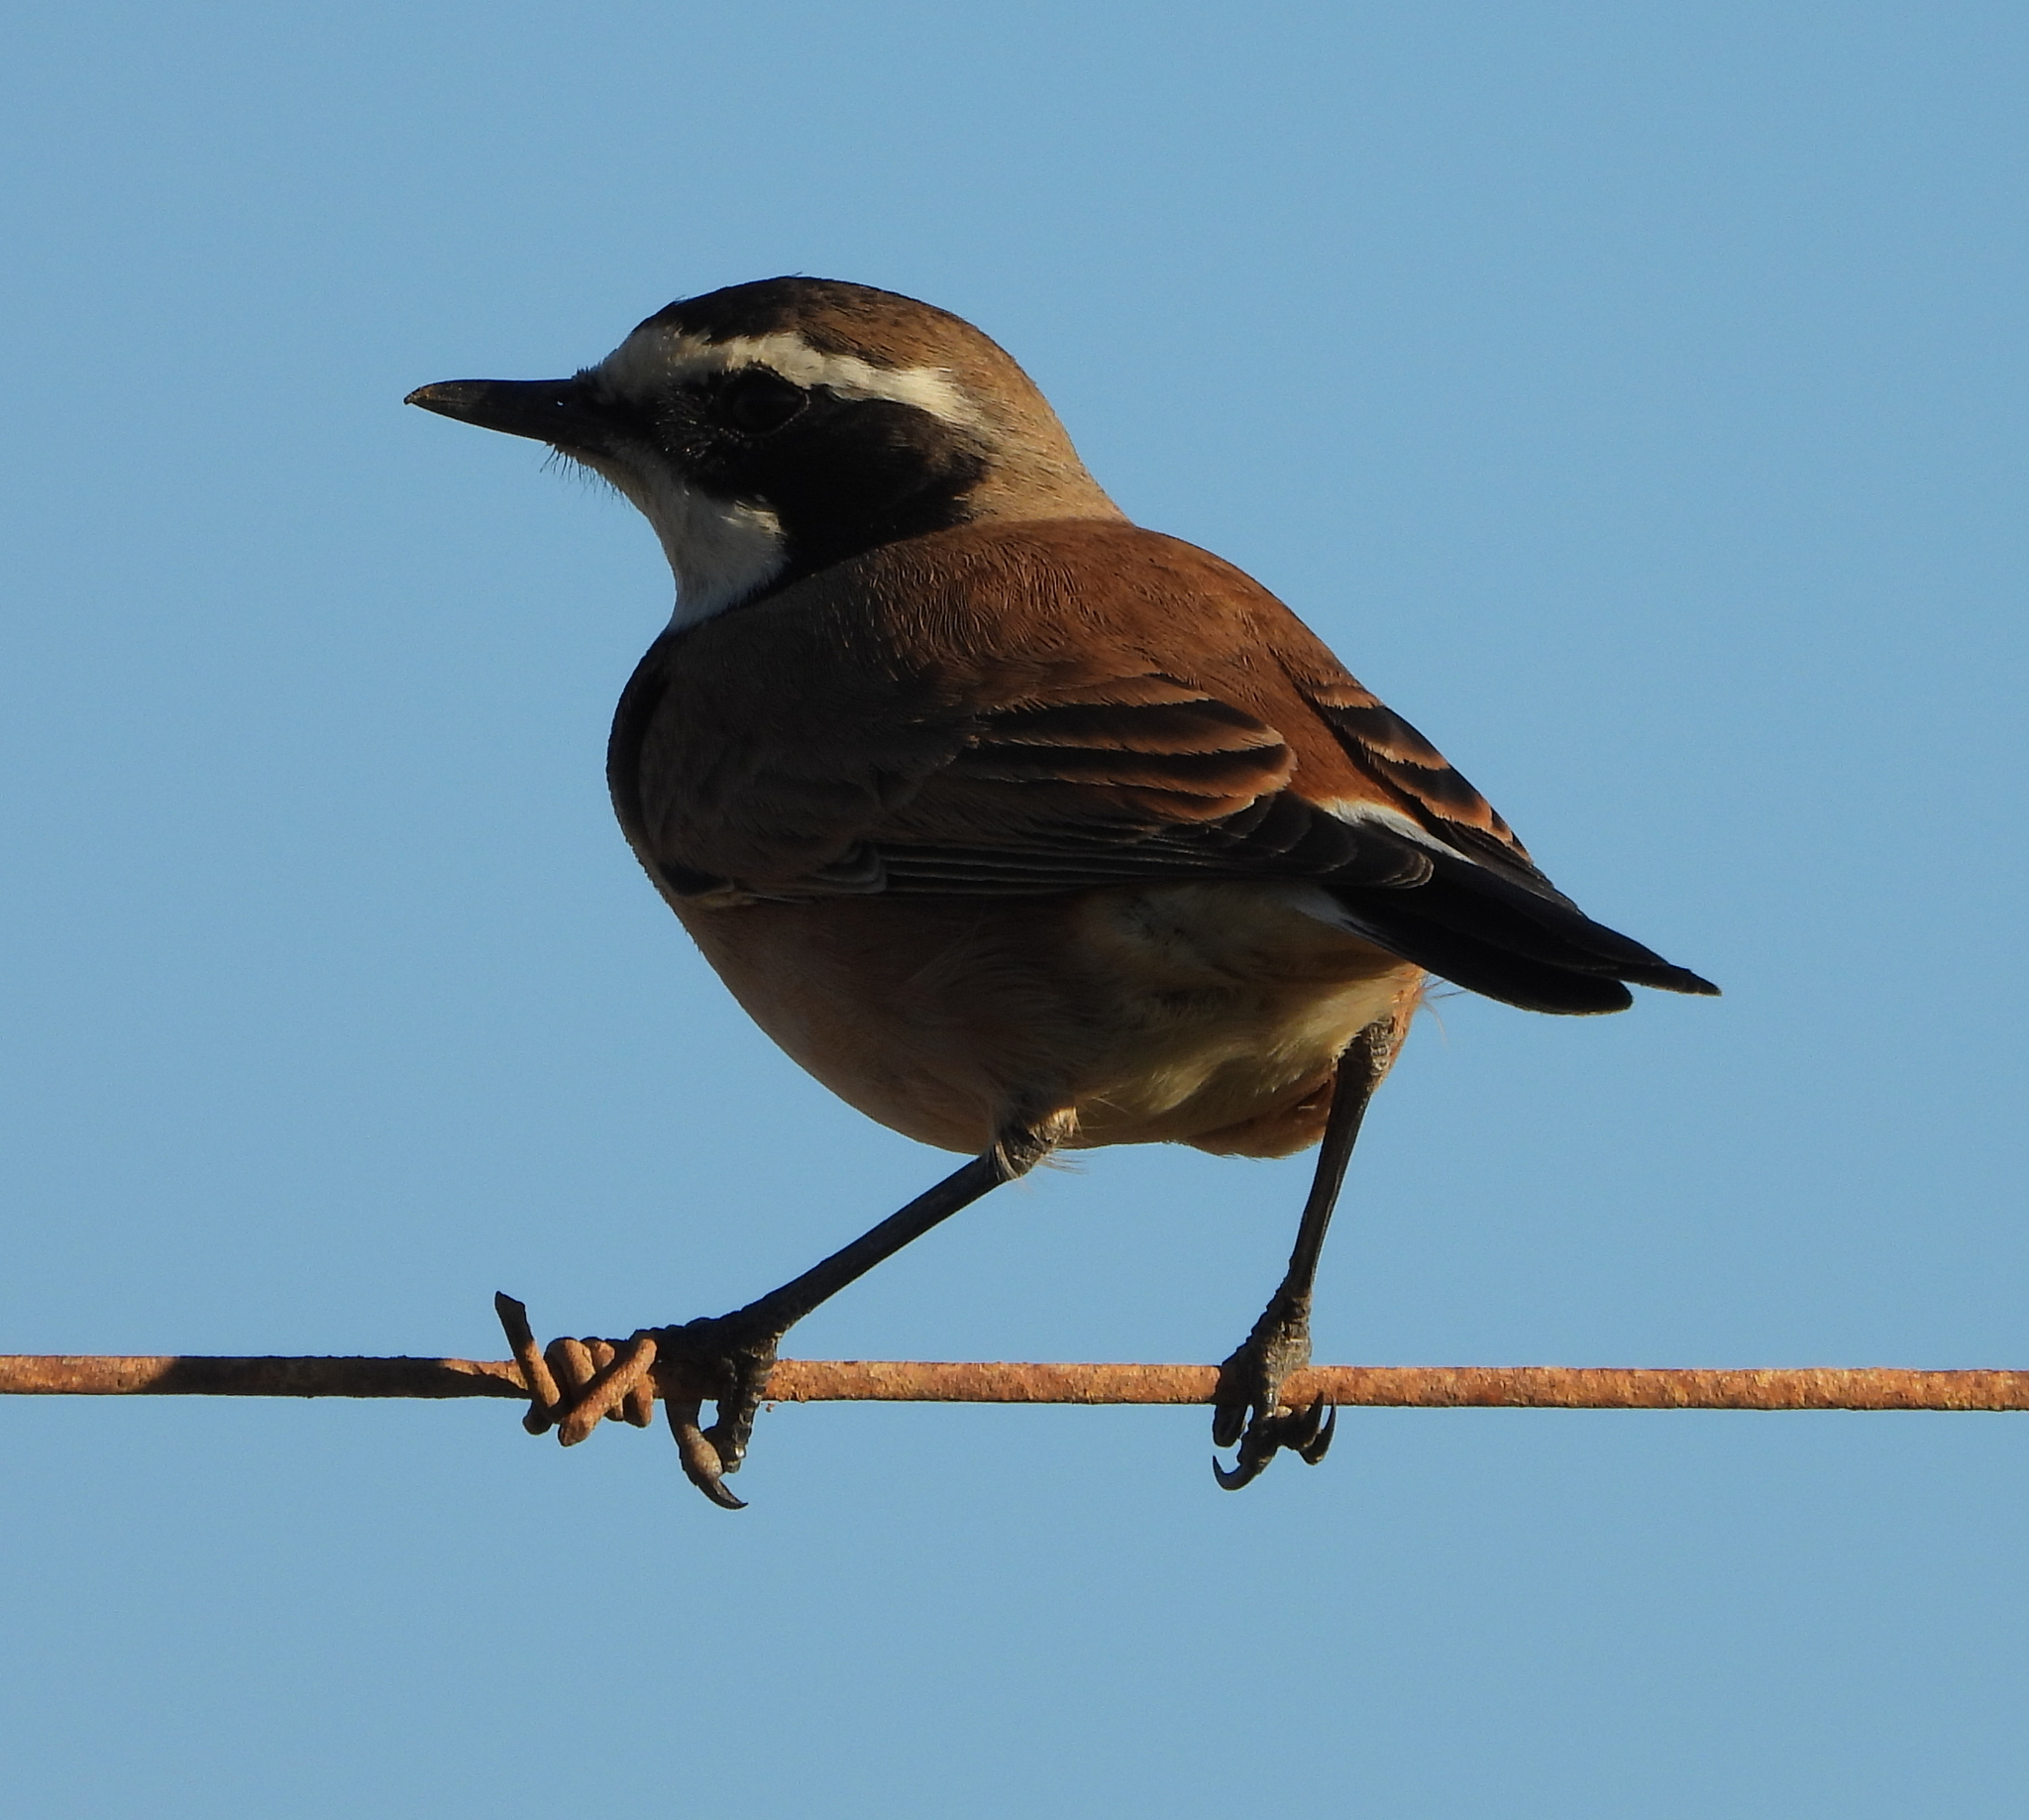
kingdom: Animalia
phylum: Chordata
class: Aves
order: Passeriformes
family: Muscicapidae
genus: Oenanthe
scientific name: Oenanthe pileata
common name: Capped wheatear
